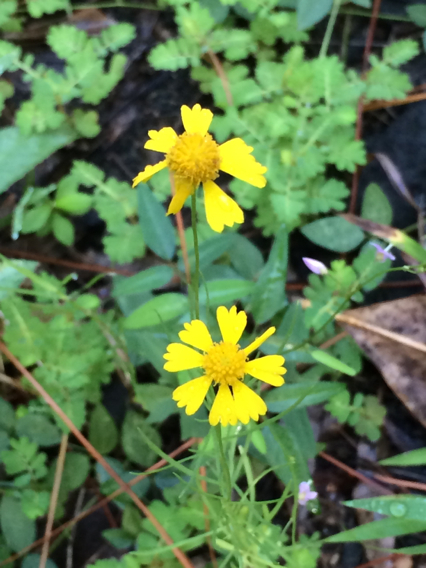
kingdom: Plantae
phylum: Tracheophyta
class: Magnoliopsida
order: Asterales
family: Asteraceae
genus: Helenium
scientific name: Helenium amarum
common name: Bitter sneezeweed
